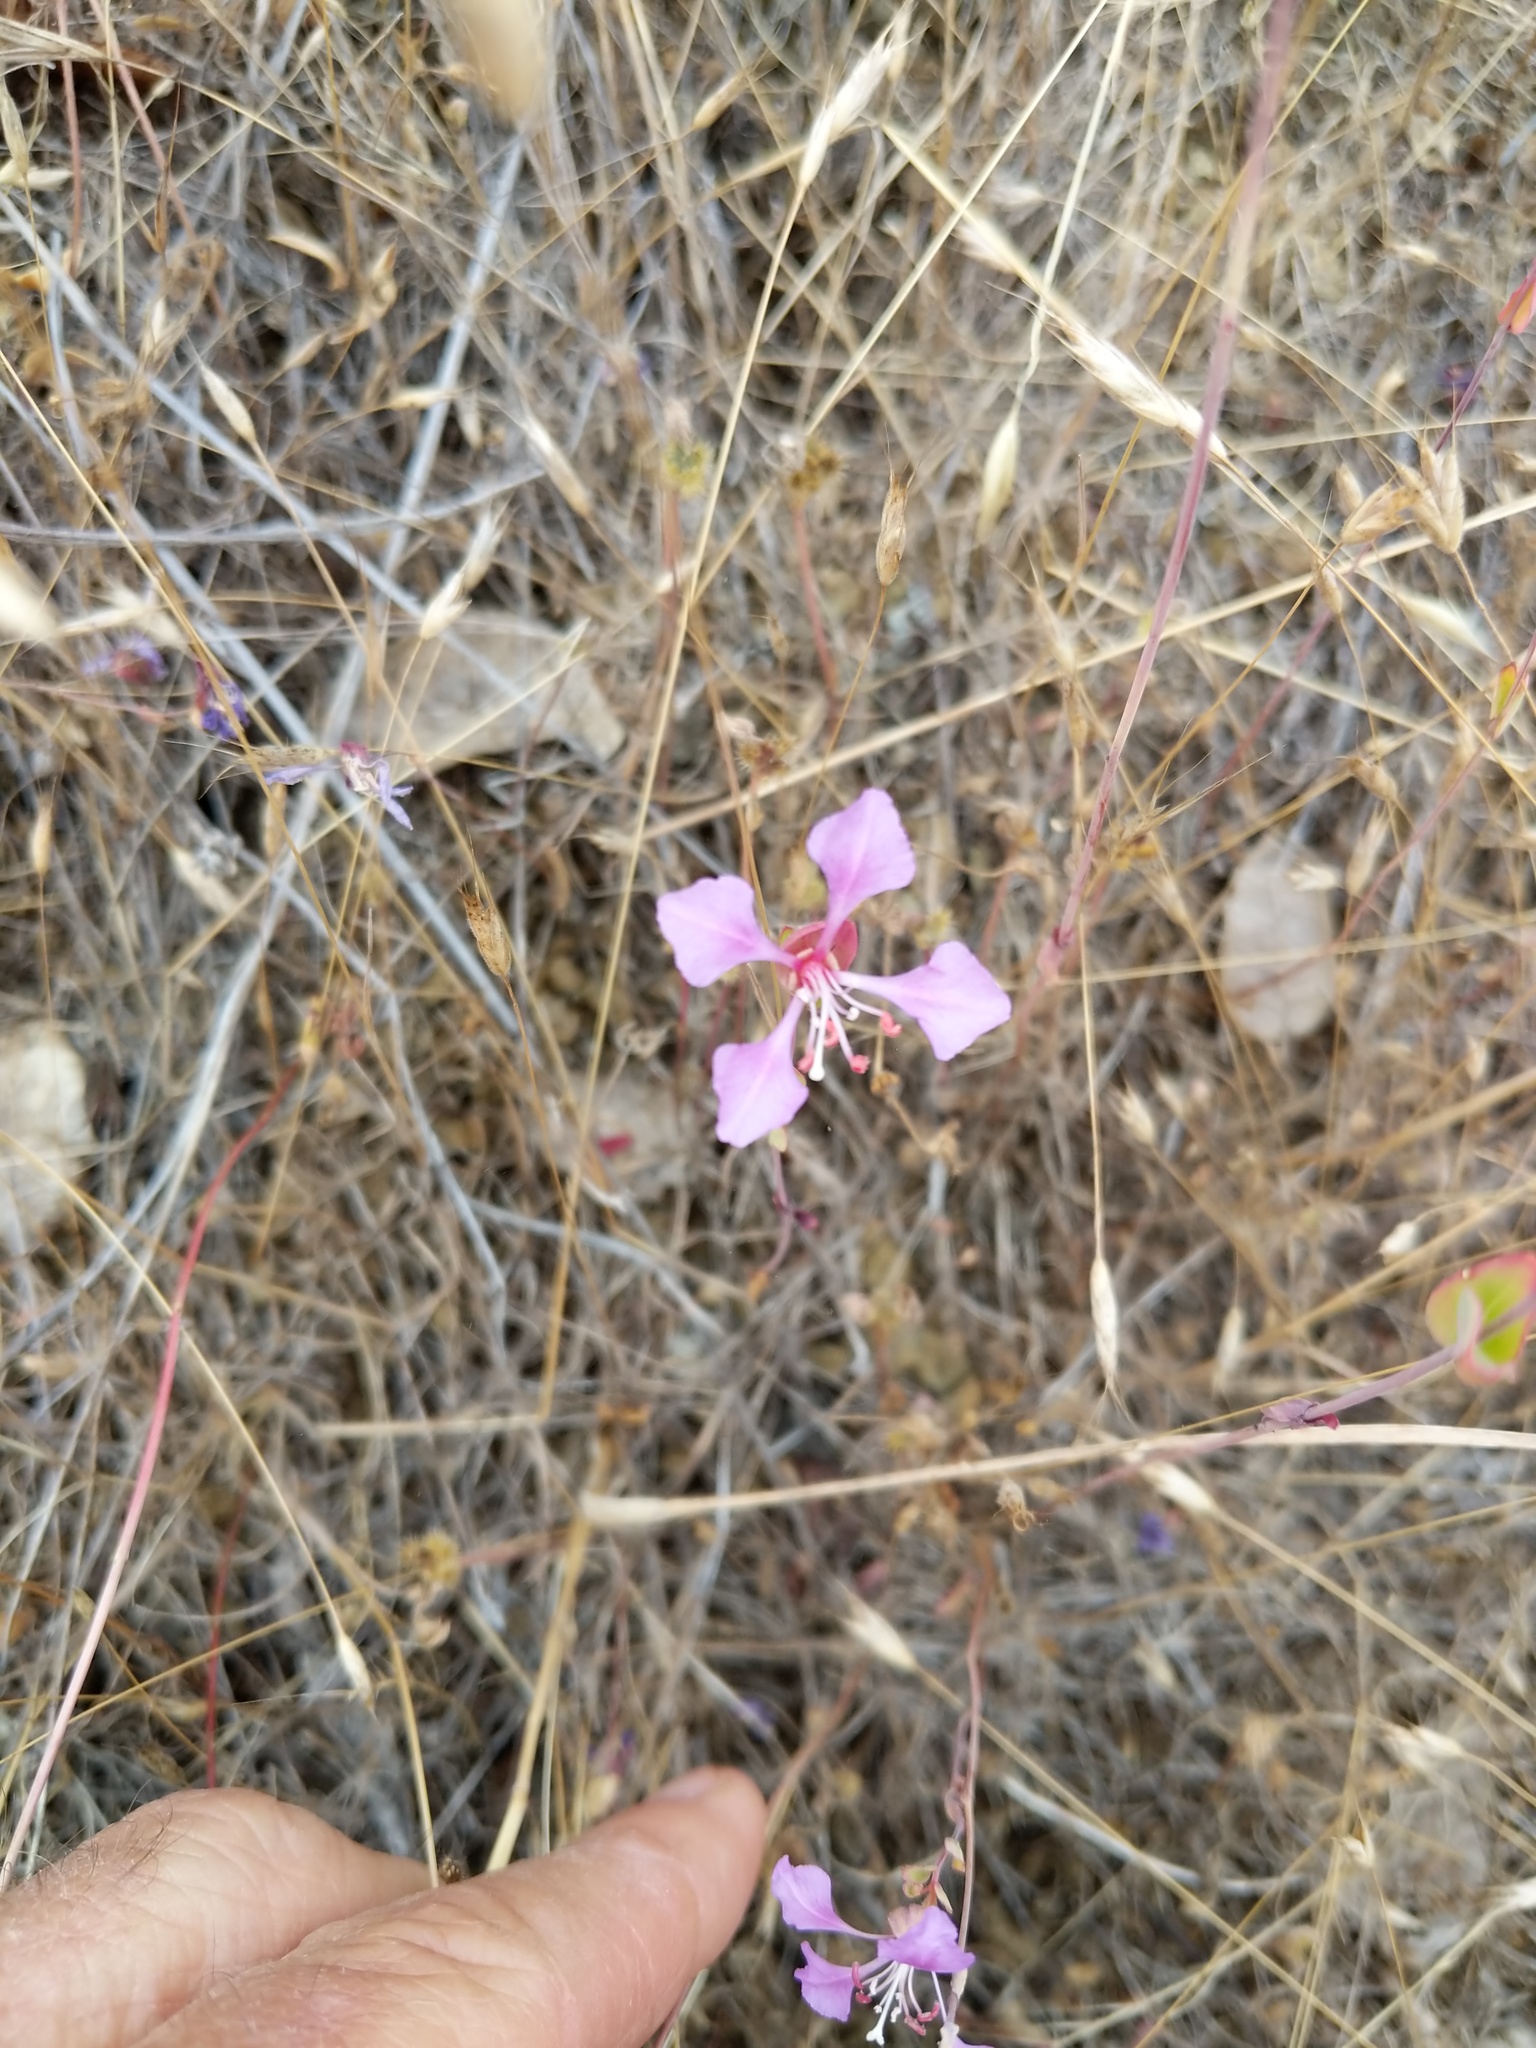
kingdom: Plantae
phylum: Tracheophyta
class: Magnoliopsida
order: Myrtales
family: Onagraceae
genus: Clarkia
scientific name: Clarkia unguiculata
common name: Clarkia
